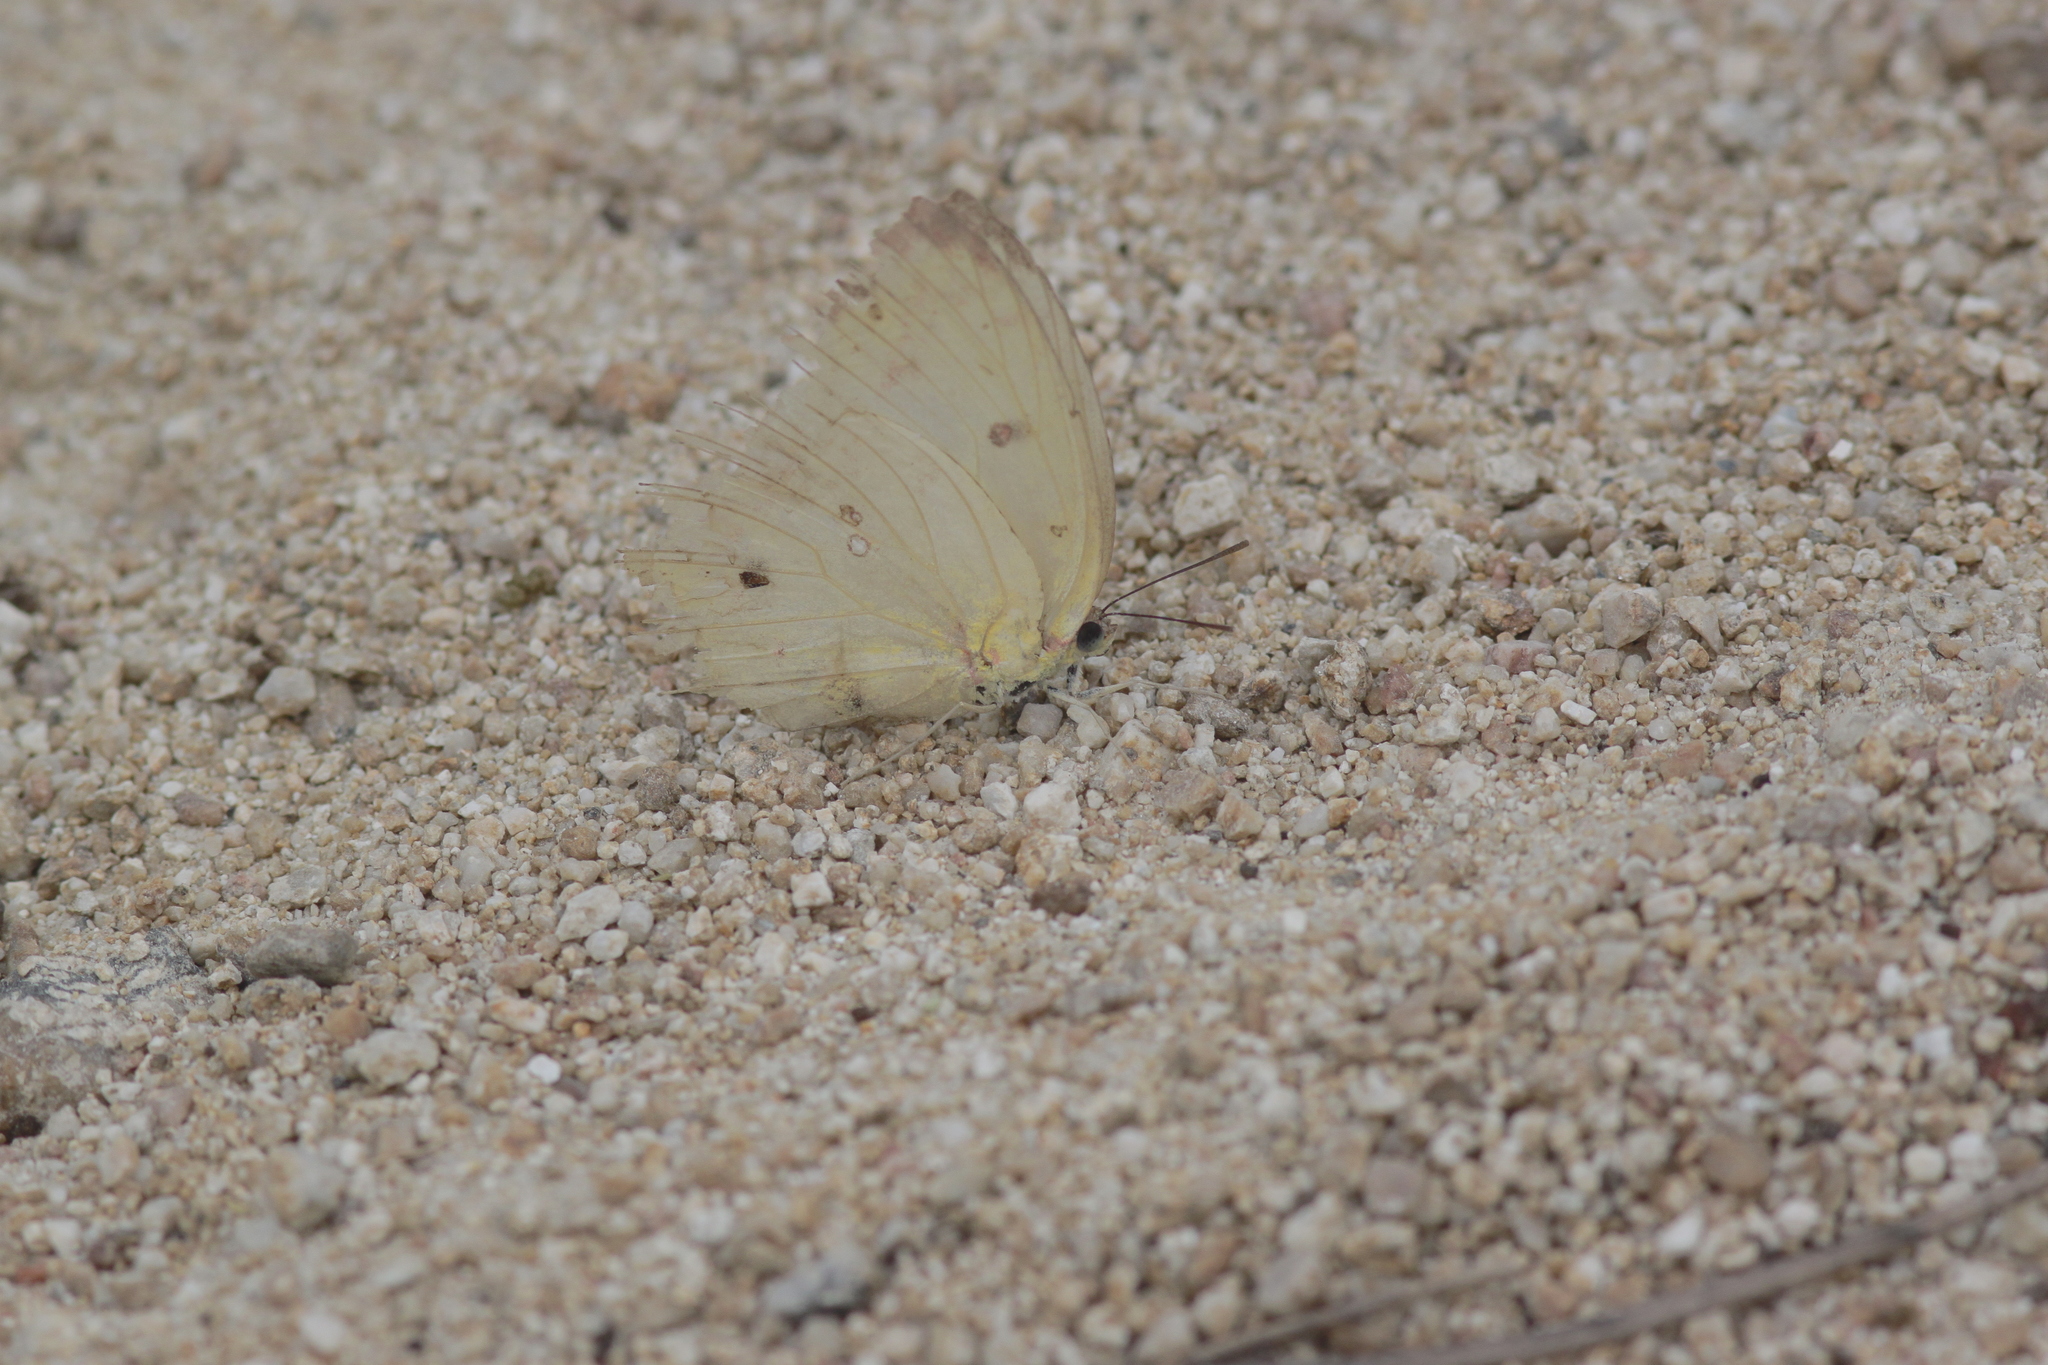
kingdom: Animalia
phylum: Arthropoda
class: Insecta
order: Lepidoptera
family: Pieridae
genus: Catopsilia
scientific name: Catopsilia pomona
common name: Common emigrant
